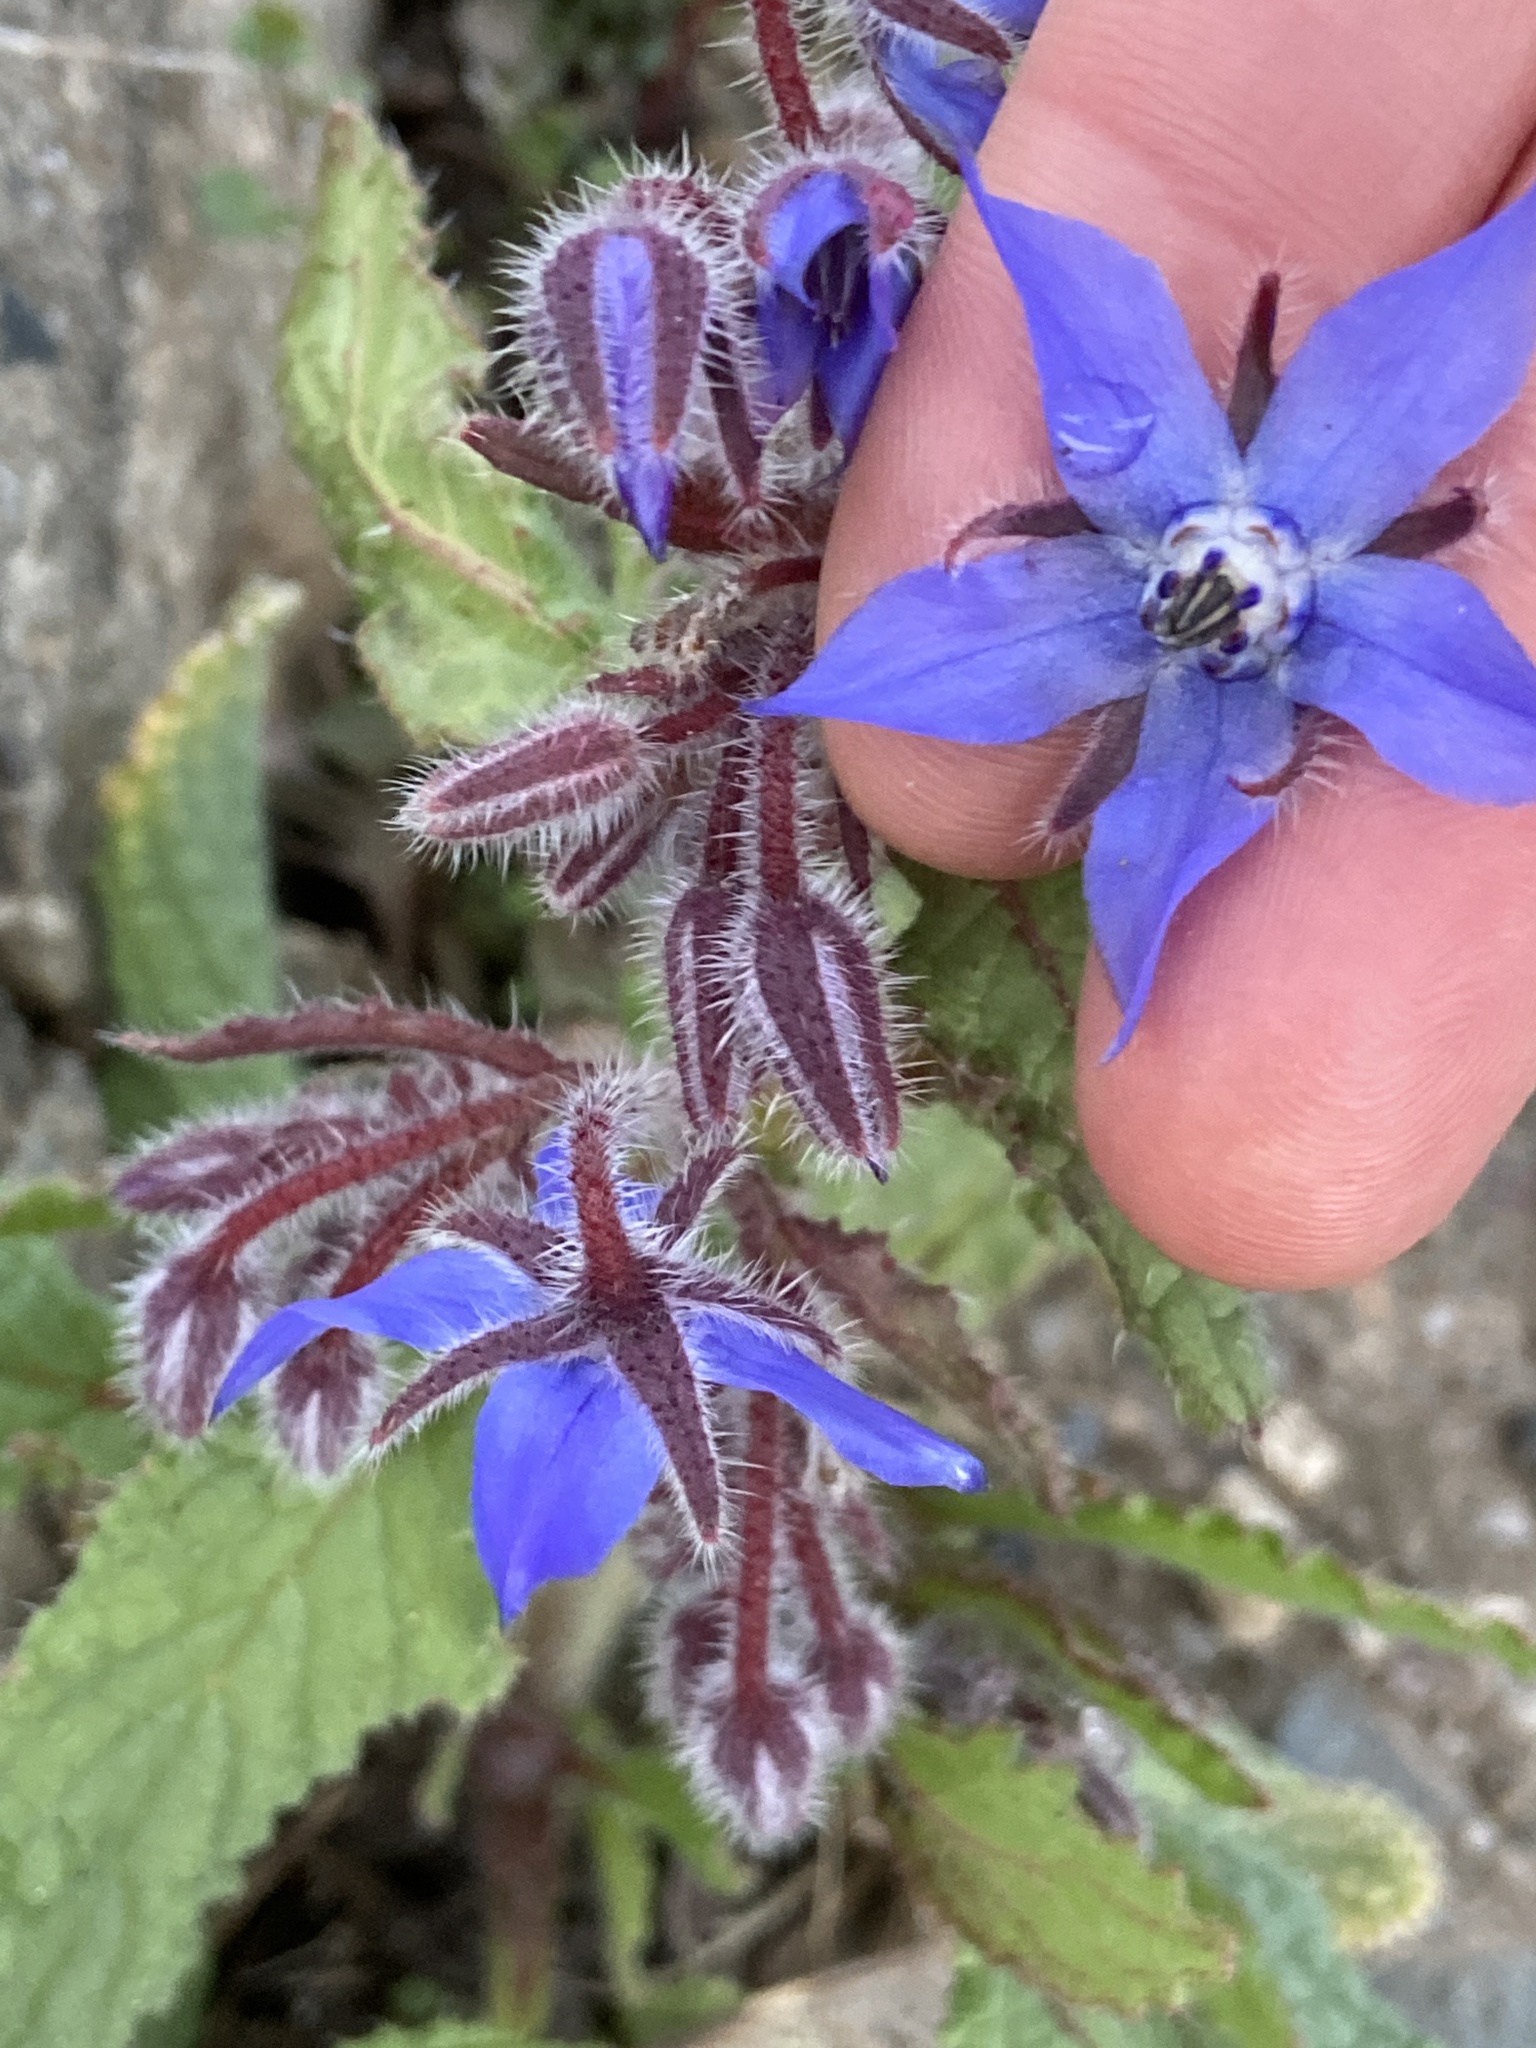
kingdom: Plantae
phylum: Tracheophyta
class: Magnoliopsida
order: Boraginales
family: Boraginaceae
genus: Borago
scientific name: Borago officinalis
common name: Borage
